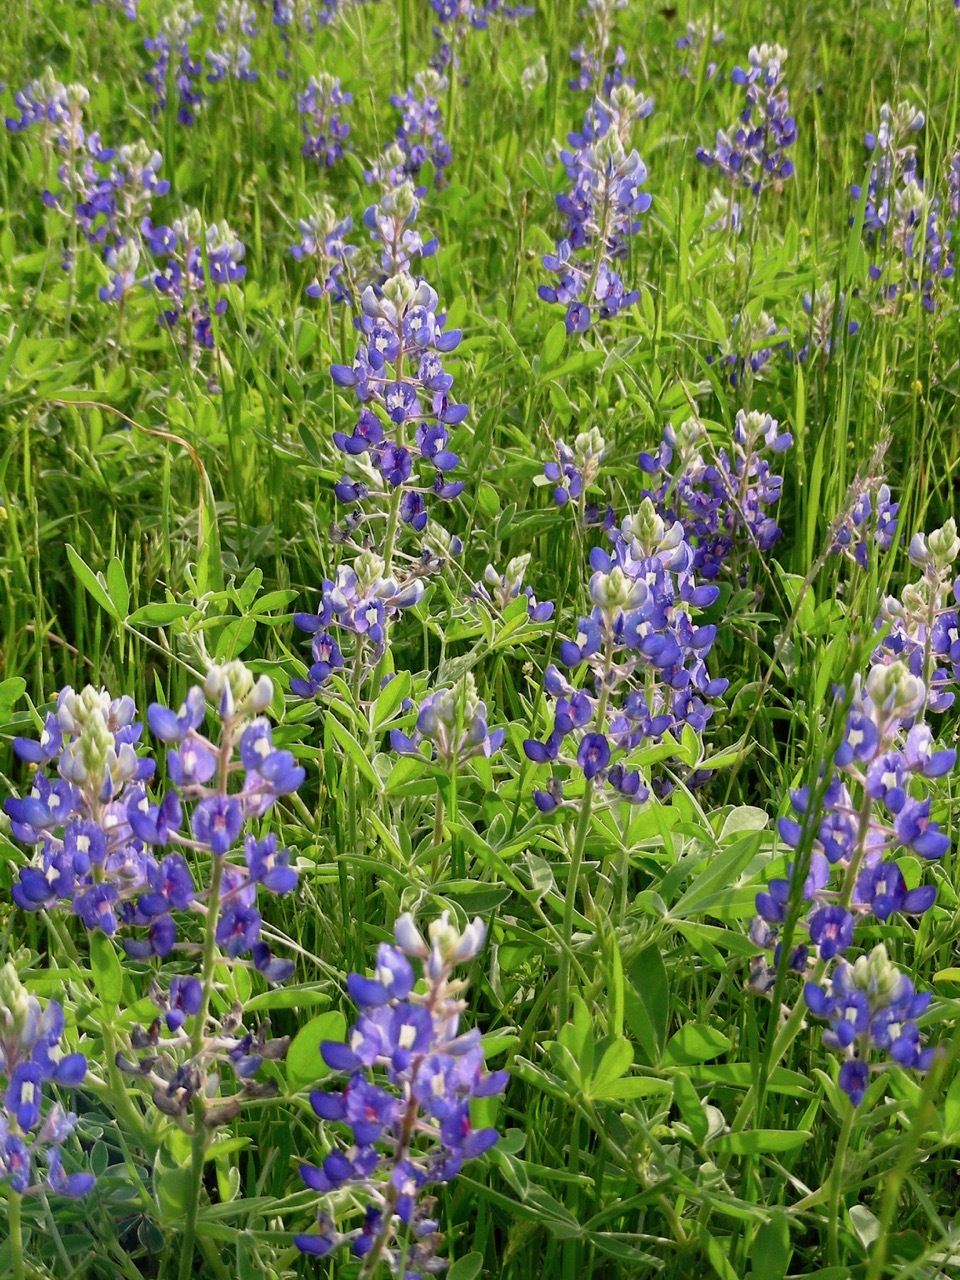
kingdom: Plantae
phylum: Tracheophyta
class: Magnoliopsida
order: Fabales
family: Fabaceae
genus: Lupinus
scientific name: Lupinus texensis
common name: Texas bluebonnet
